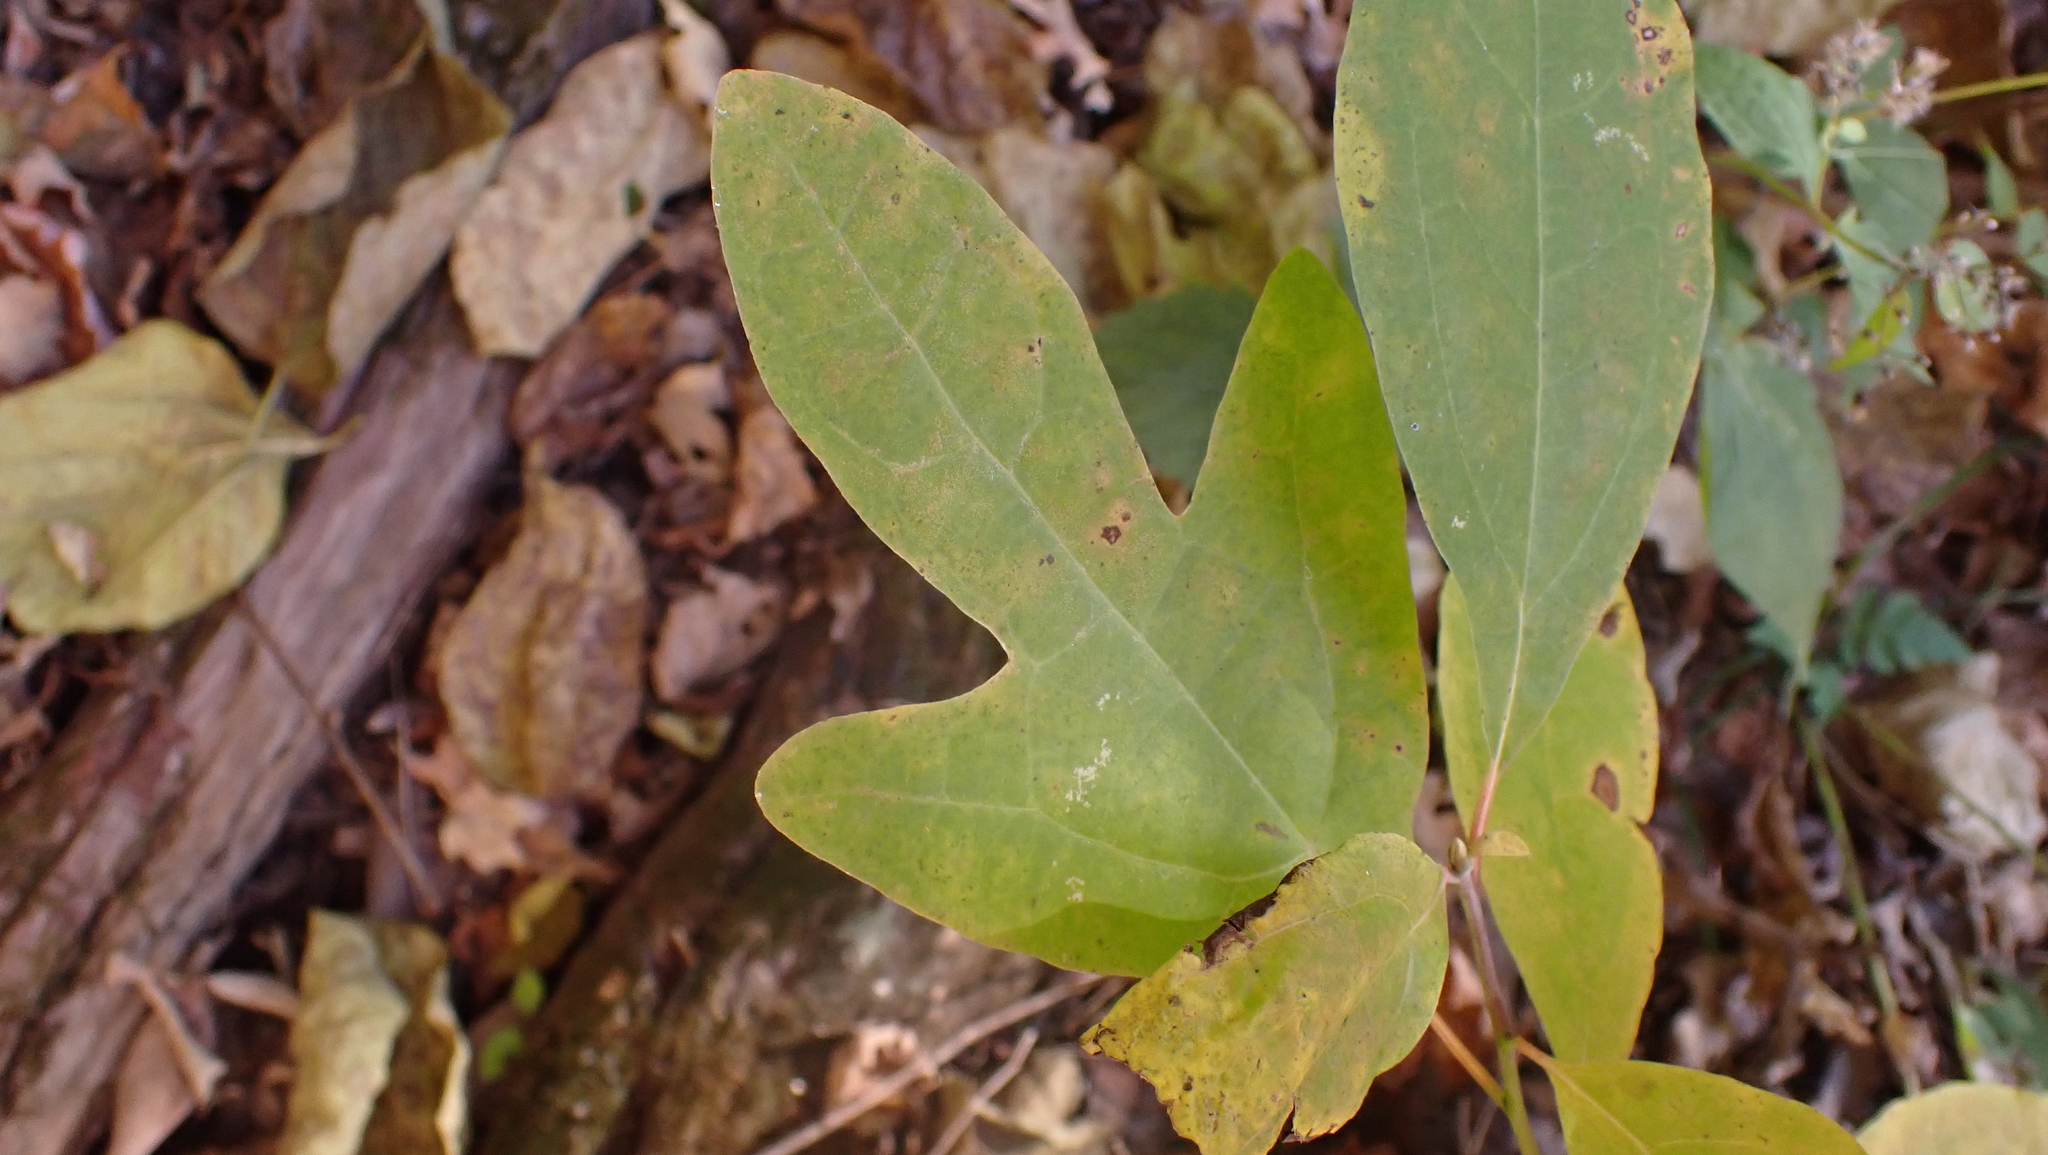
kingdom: Plantae
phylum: Tracheophyta
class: Magnoliopsida
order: Laurales
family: Lauraceae
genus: Sassafras
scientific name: Sassafras albidum
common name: Sassafras
